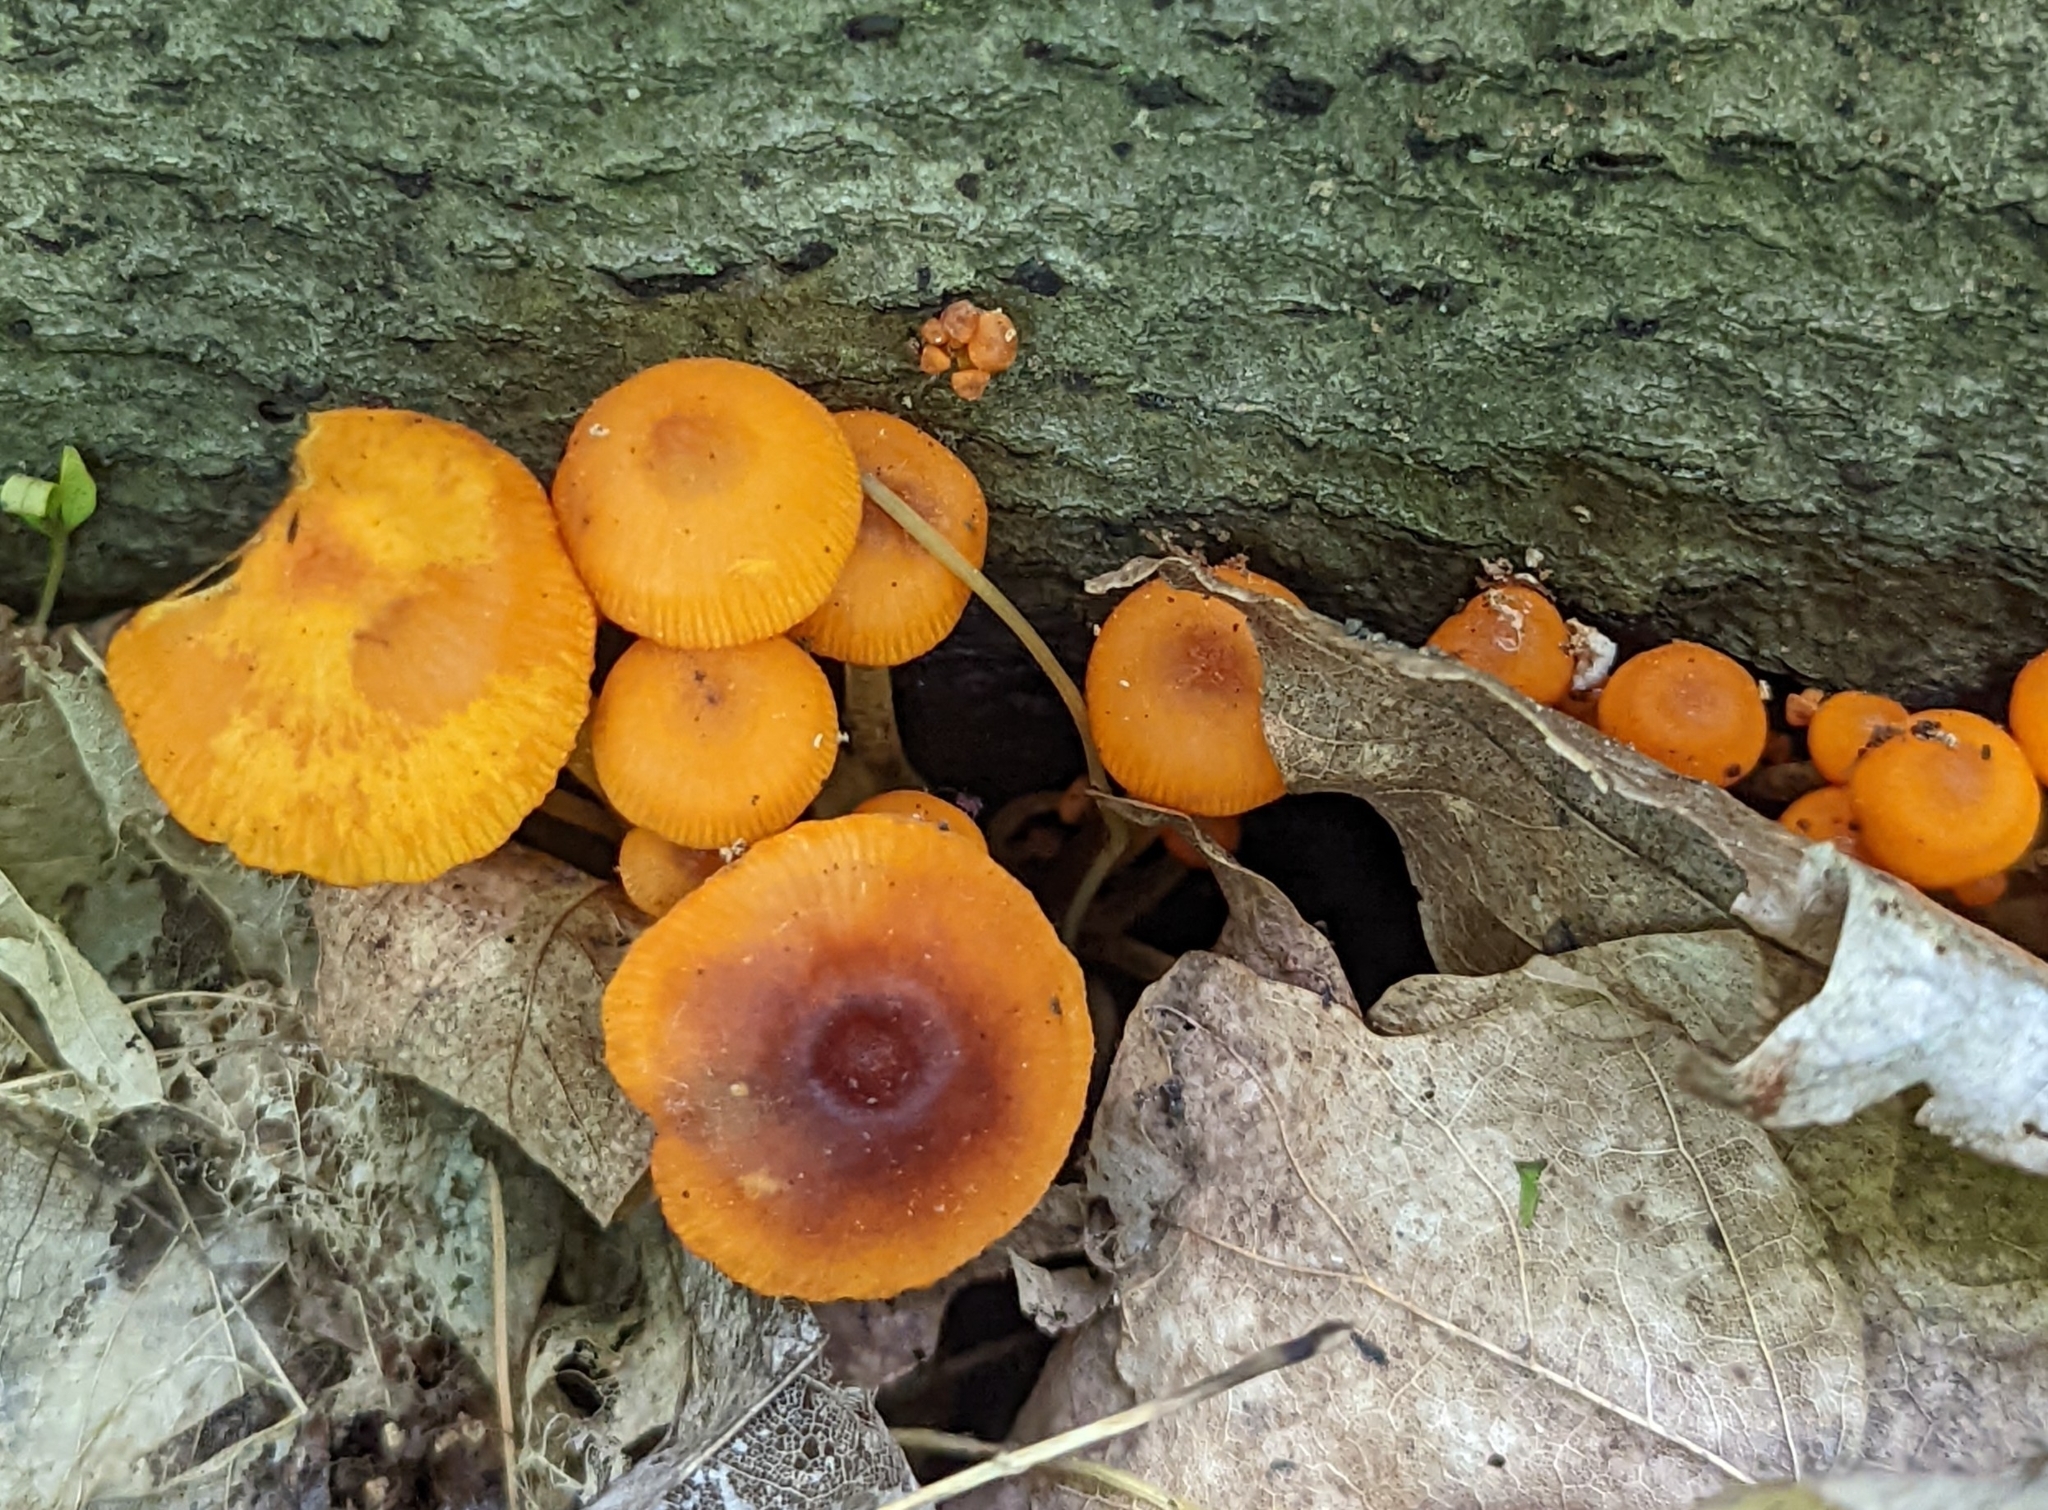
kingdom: Fungi
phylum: Basidiomycota
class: Agaricomycetes
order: Agaricales
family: Mycenaceae
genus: Mycena
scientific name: Mycena leaiana
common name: Orange mycena
